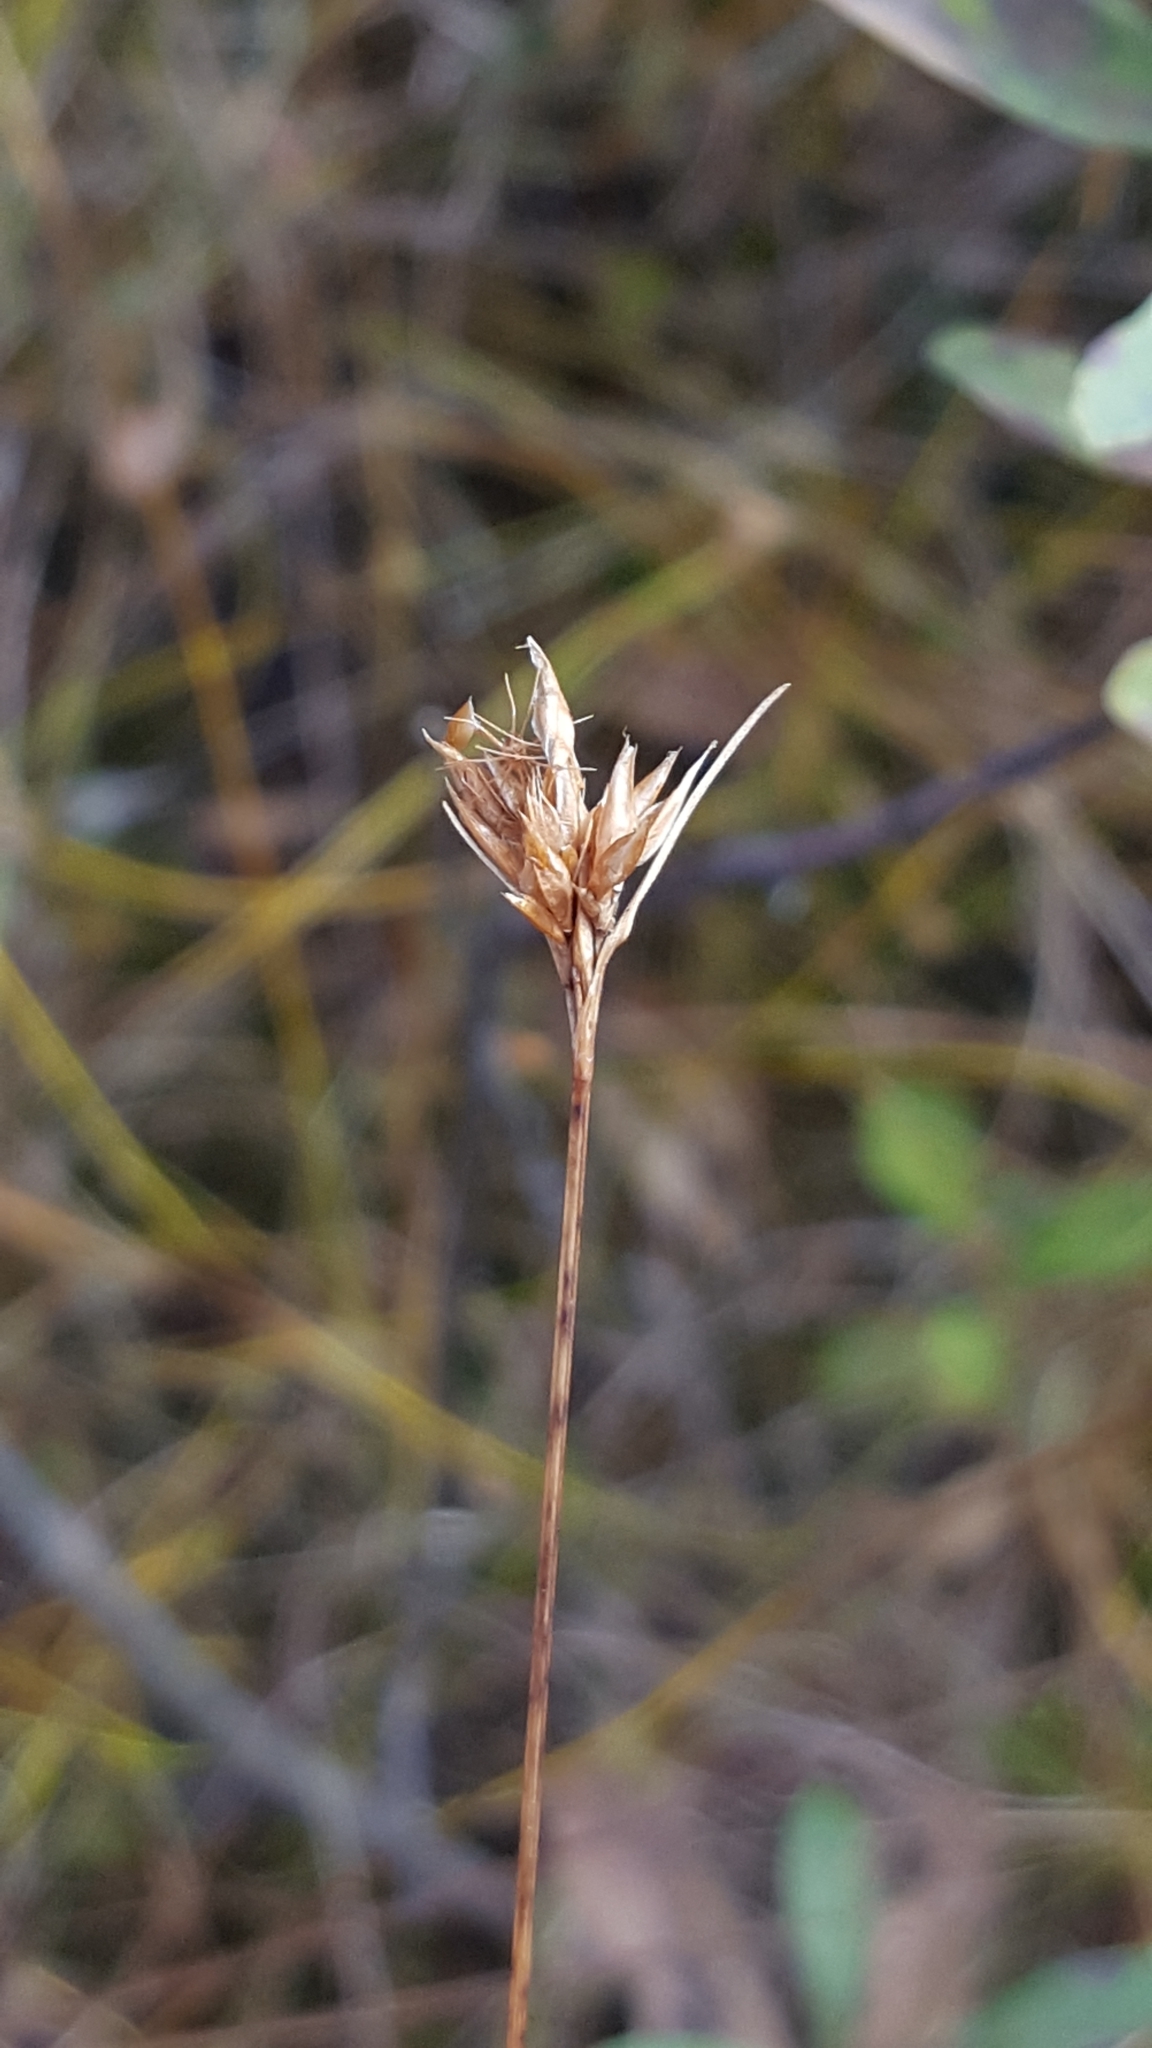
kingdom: Plantae
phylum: Tracheophyta
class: Liliopsida
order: Poales
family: Cyperaceae
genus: Rhynchospora
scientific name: Rhynchospora alba
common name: White beak-sedge
